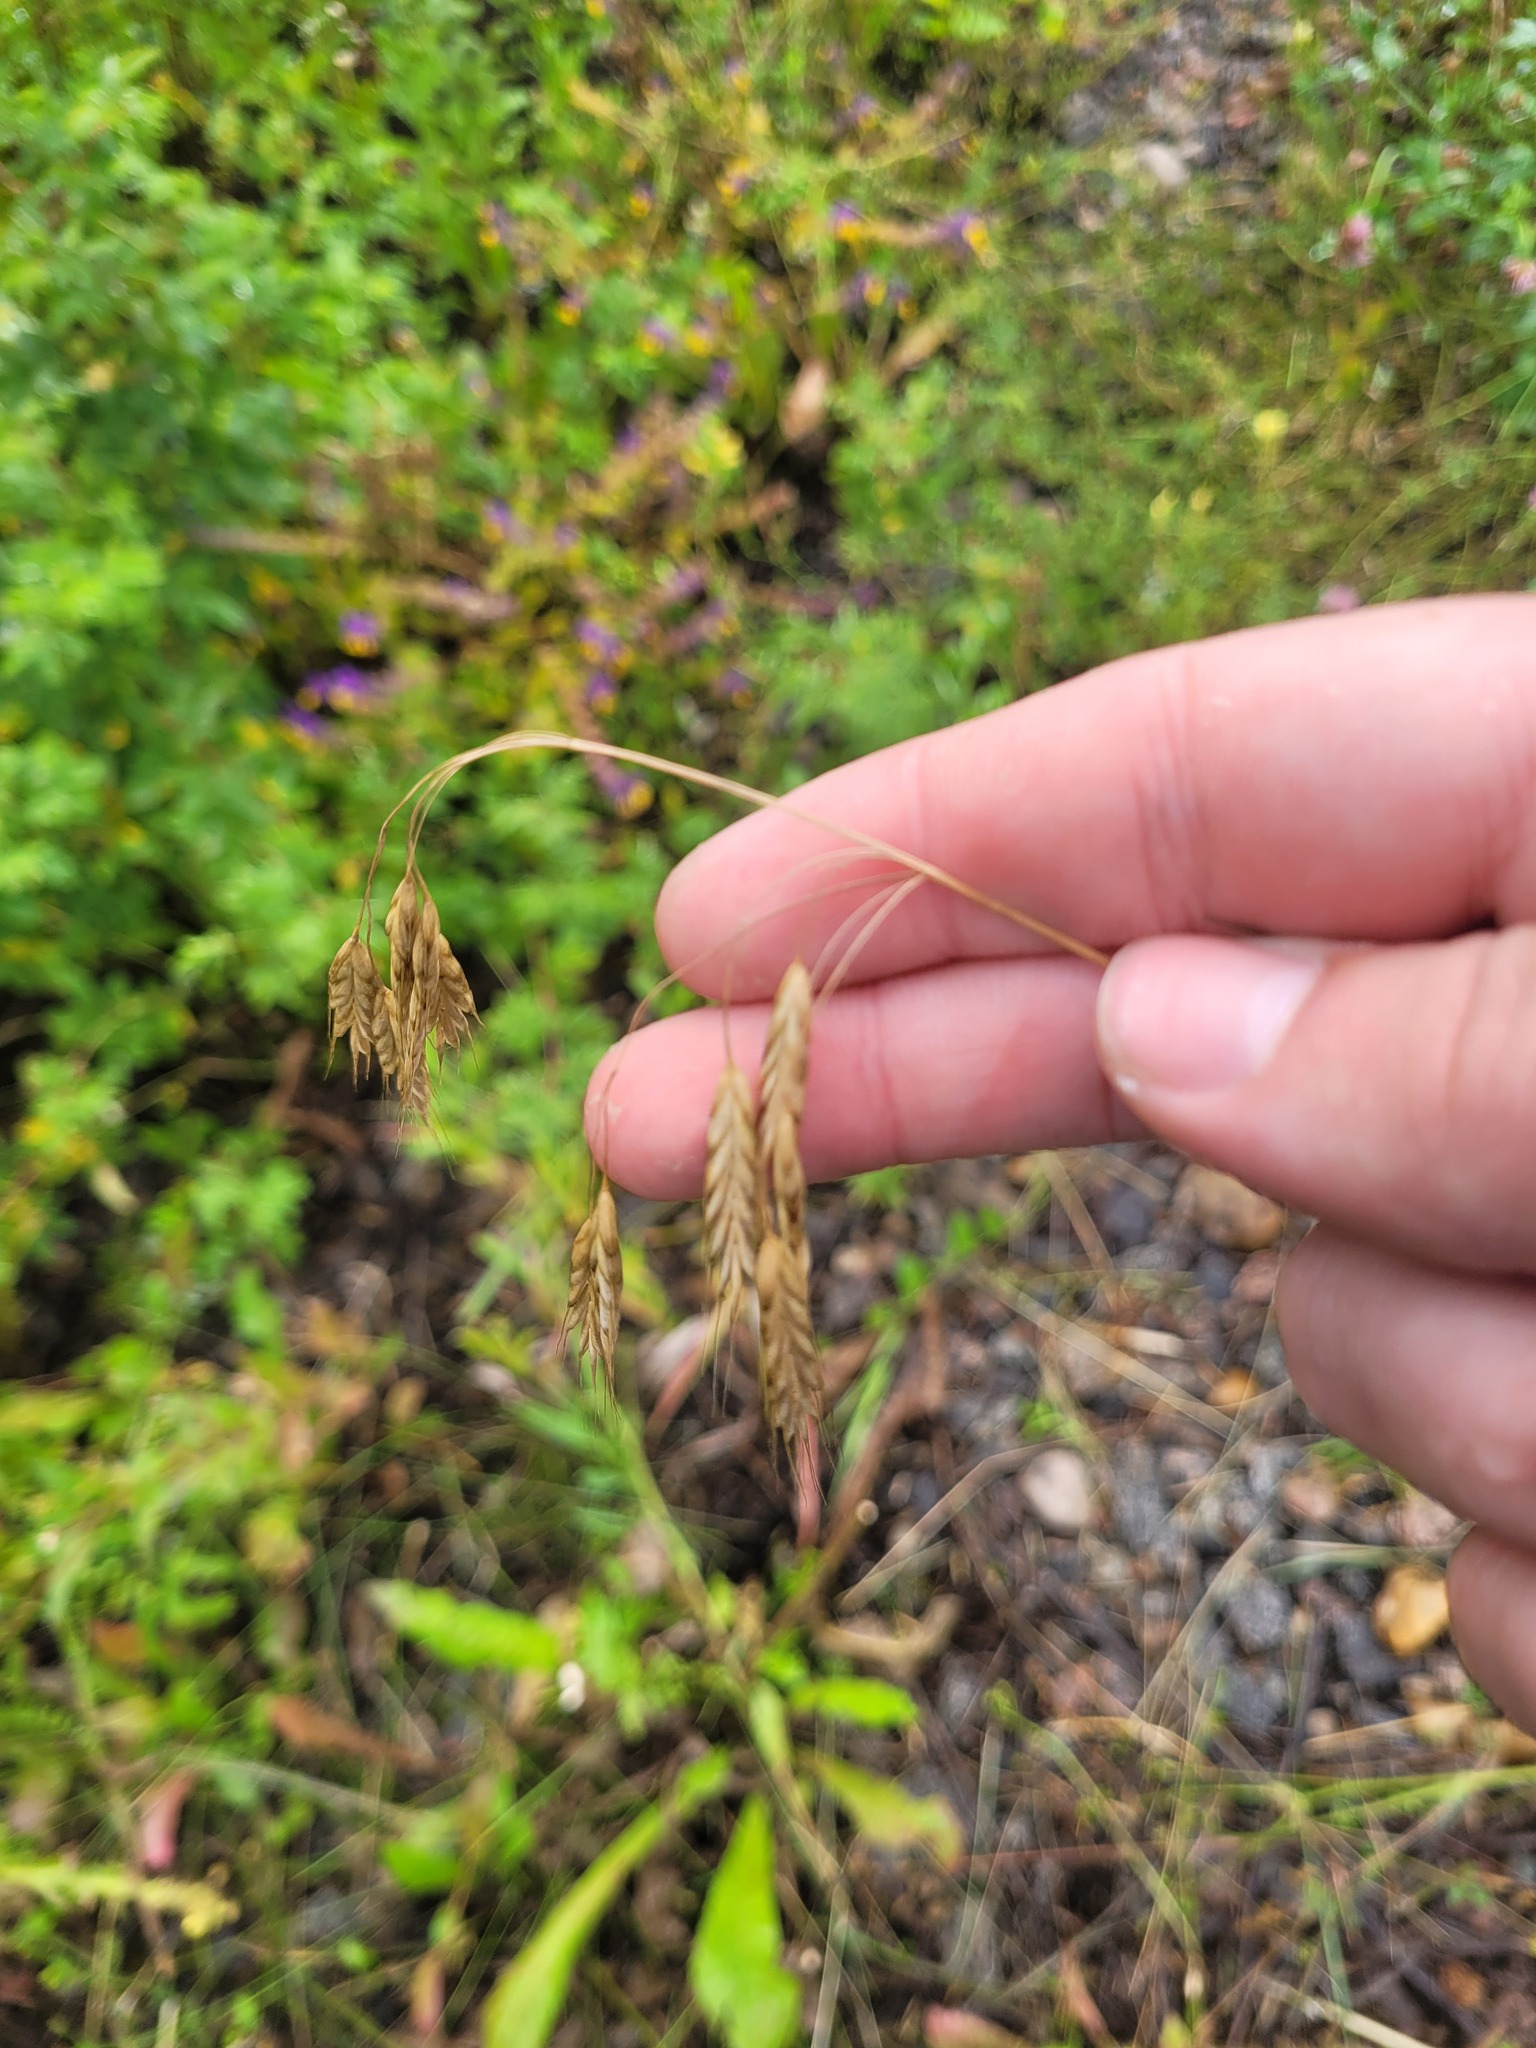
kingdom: Plantae
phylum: Tracheophyta
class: Liliopsida
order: Poales
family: Poaceae
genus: Bromus
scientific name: Bromus japonicus
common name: Japanese brome
